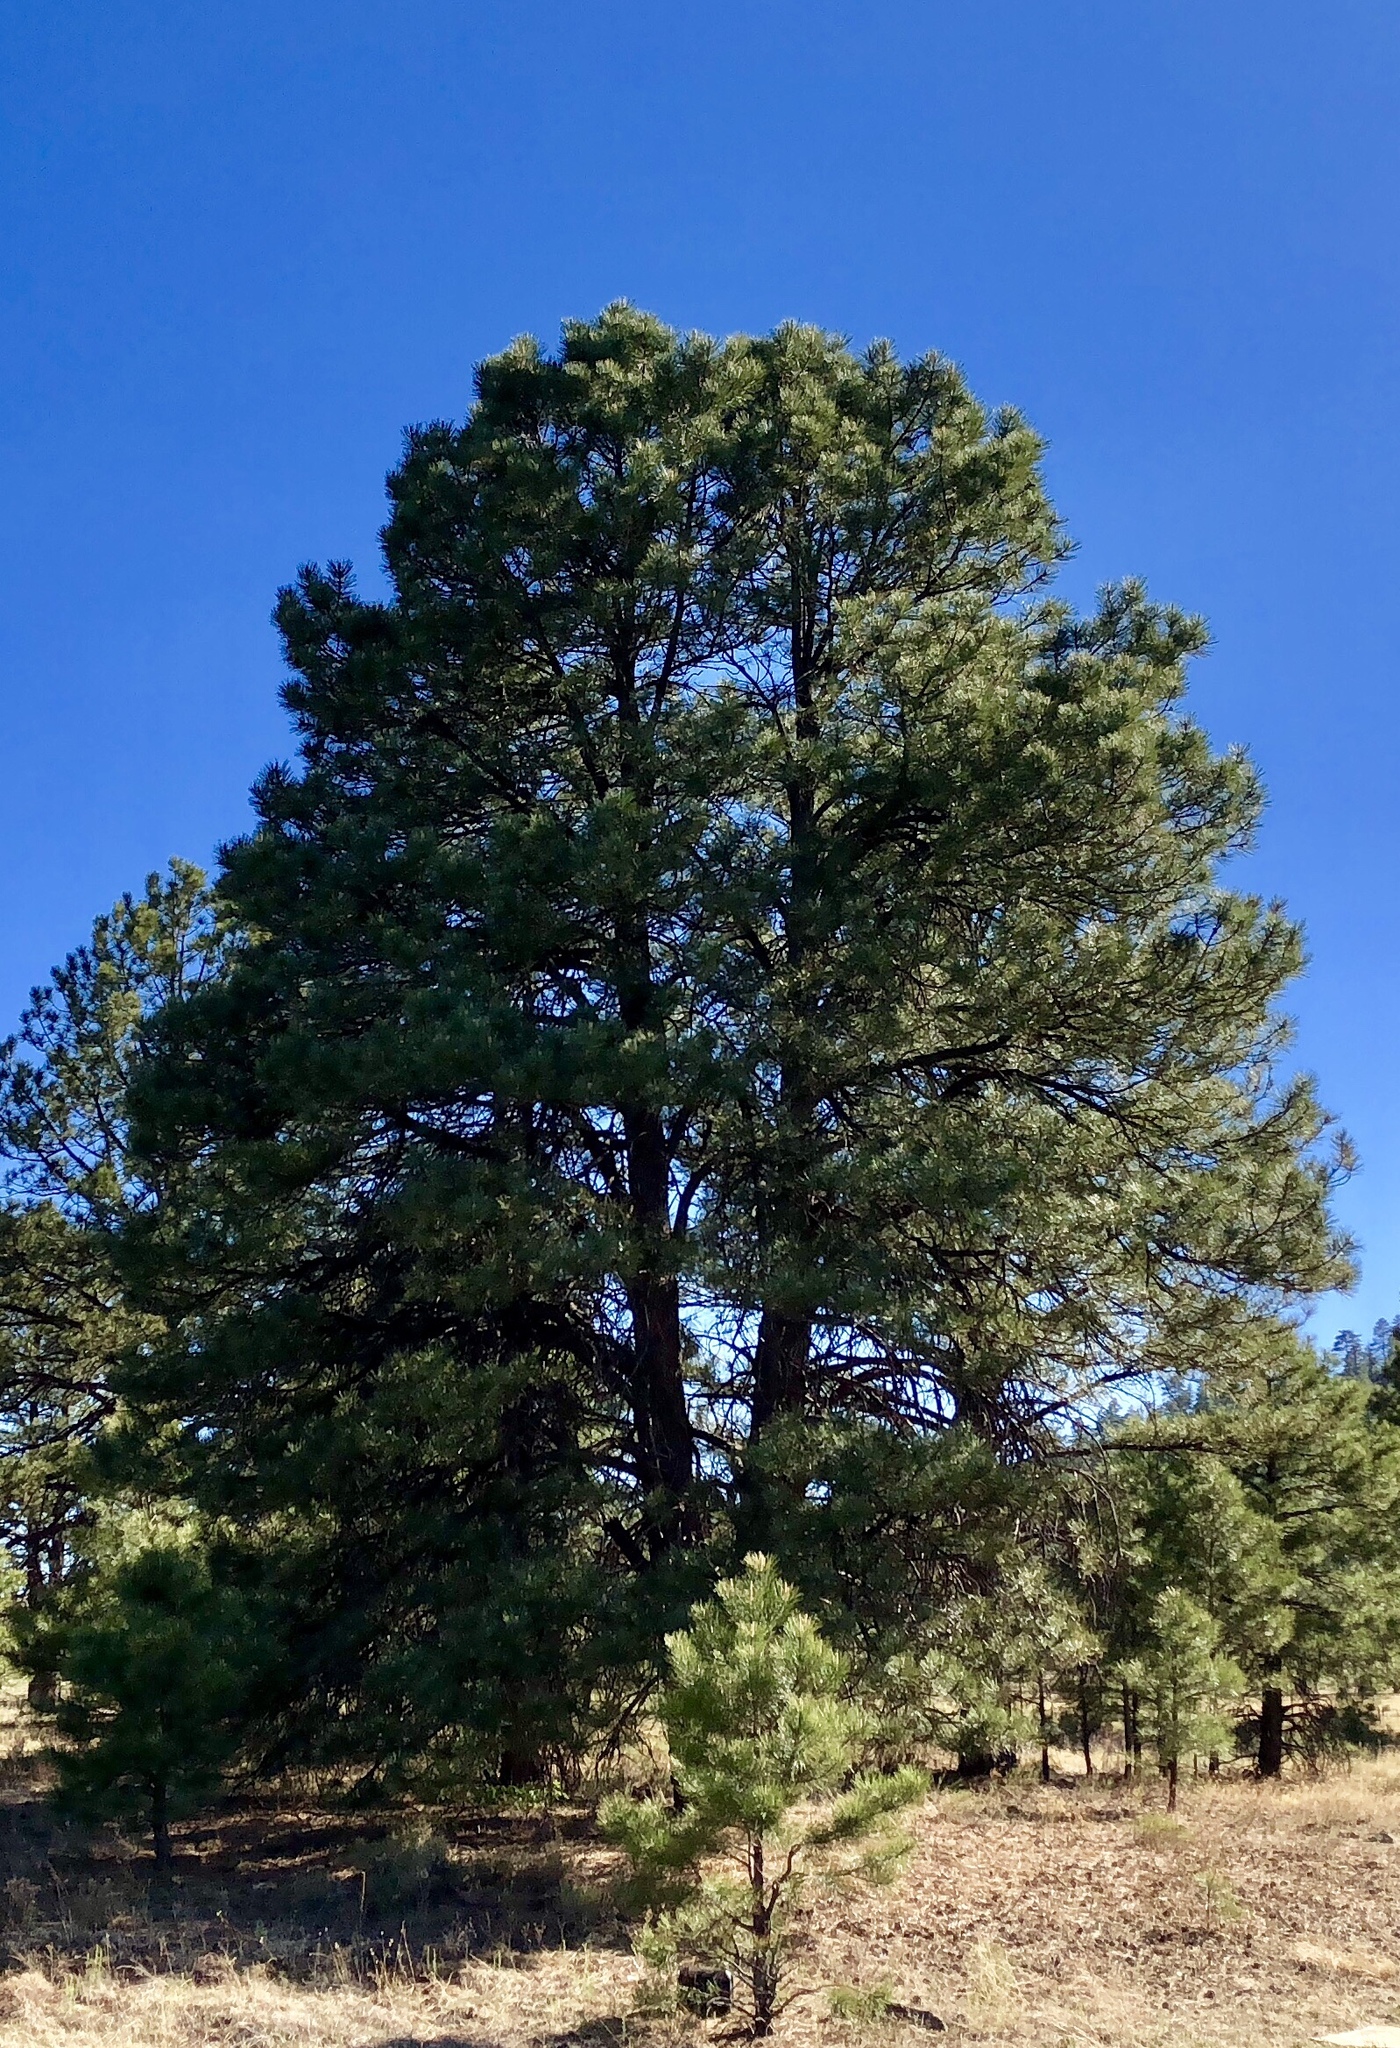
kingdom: Plantae
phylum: Tracheophyta
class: Pinopsida
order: Pinales
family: Pinaceae
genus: Pinus
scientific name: Pinus ponderosa
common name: Western yellow-pine
